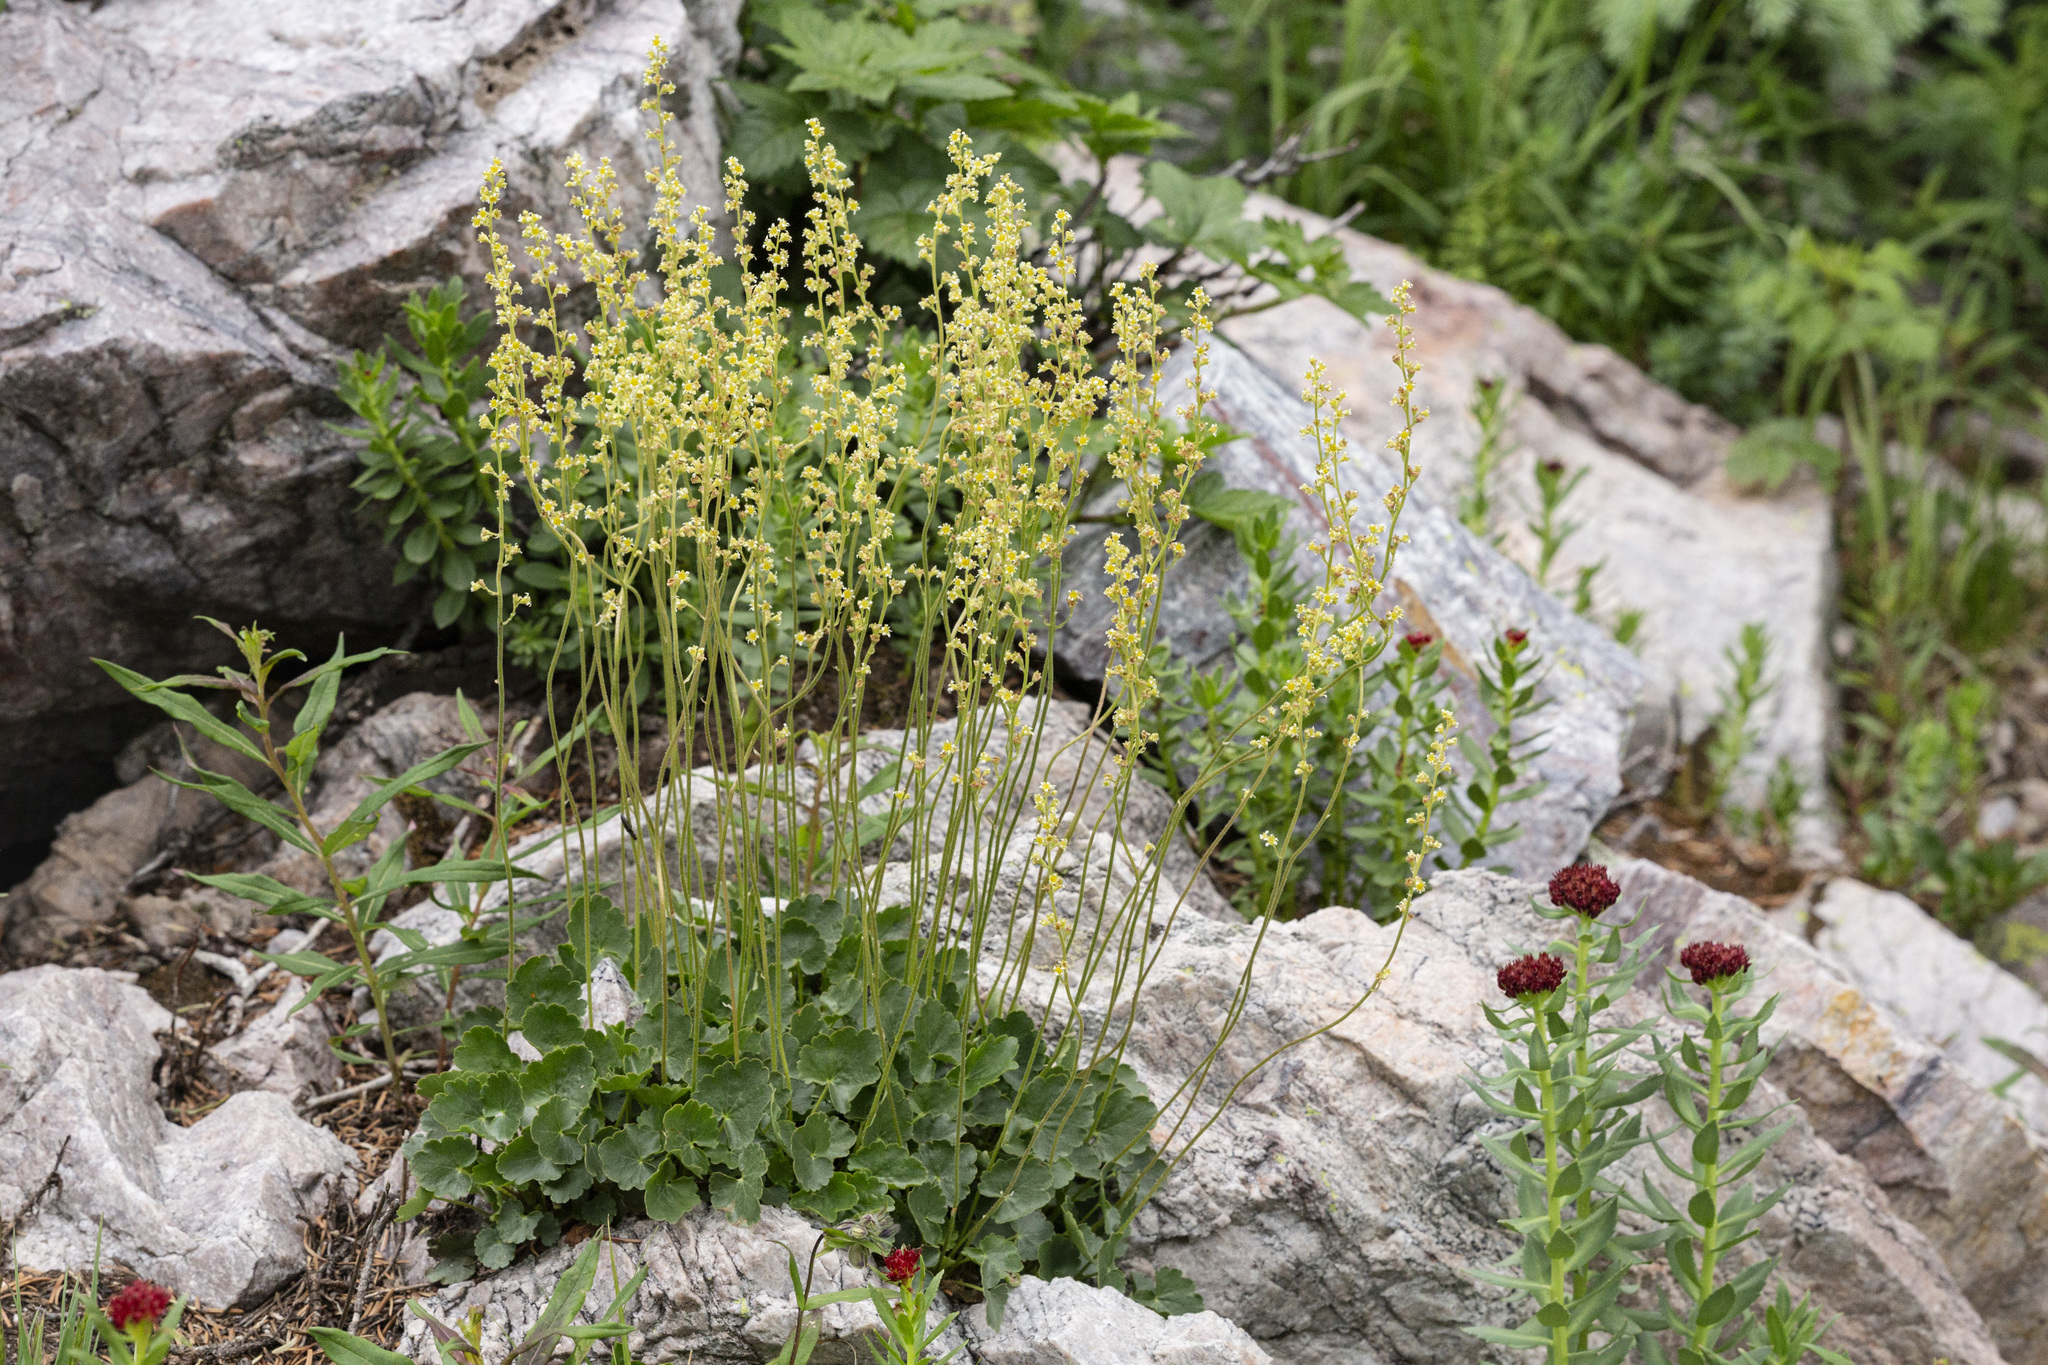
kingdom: Plantae
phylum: Tracheophyta
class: Magnoliopsida
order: Saxifragales
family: Saxifragaceae
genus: Heuchera
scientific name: Heuchera parvifolia
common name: Common alumroot
